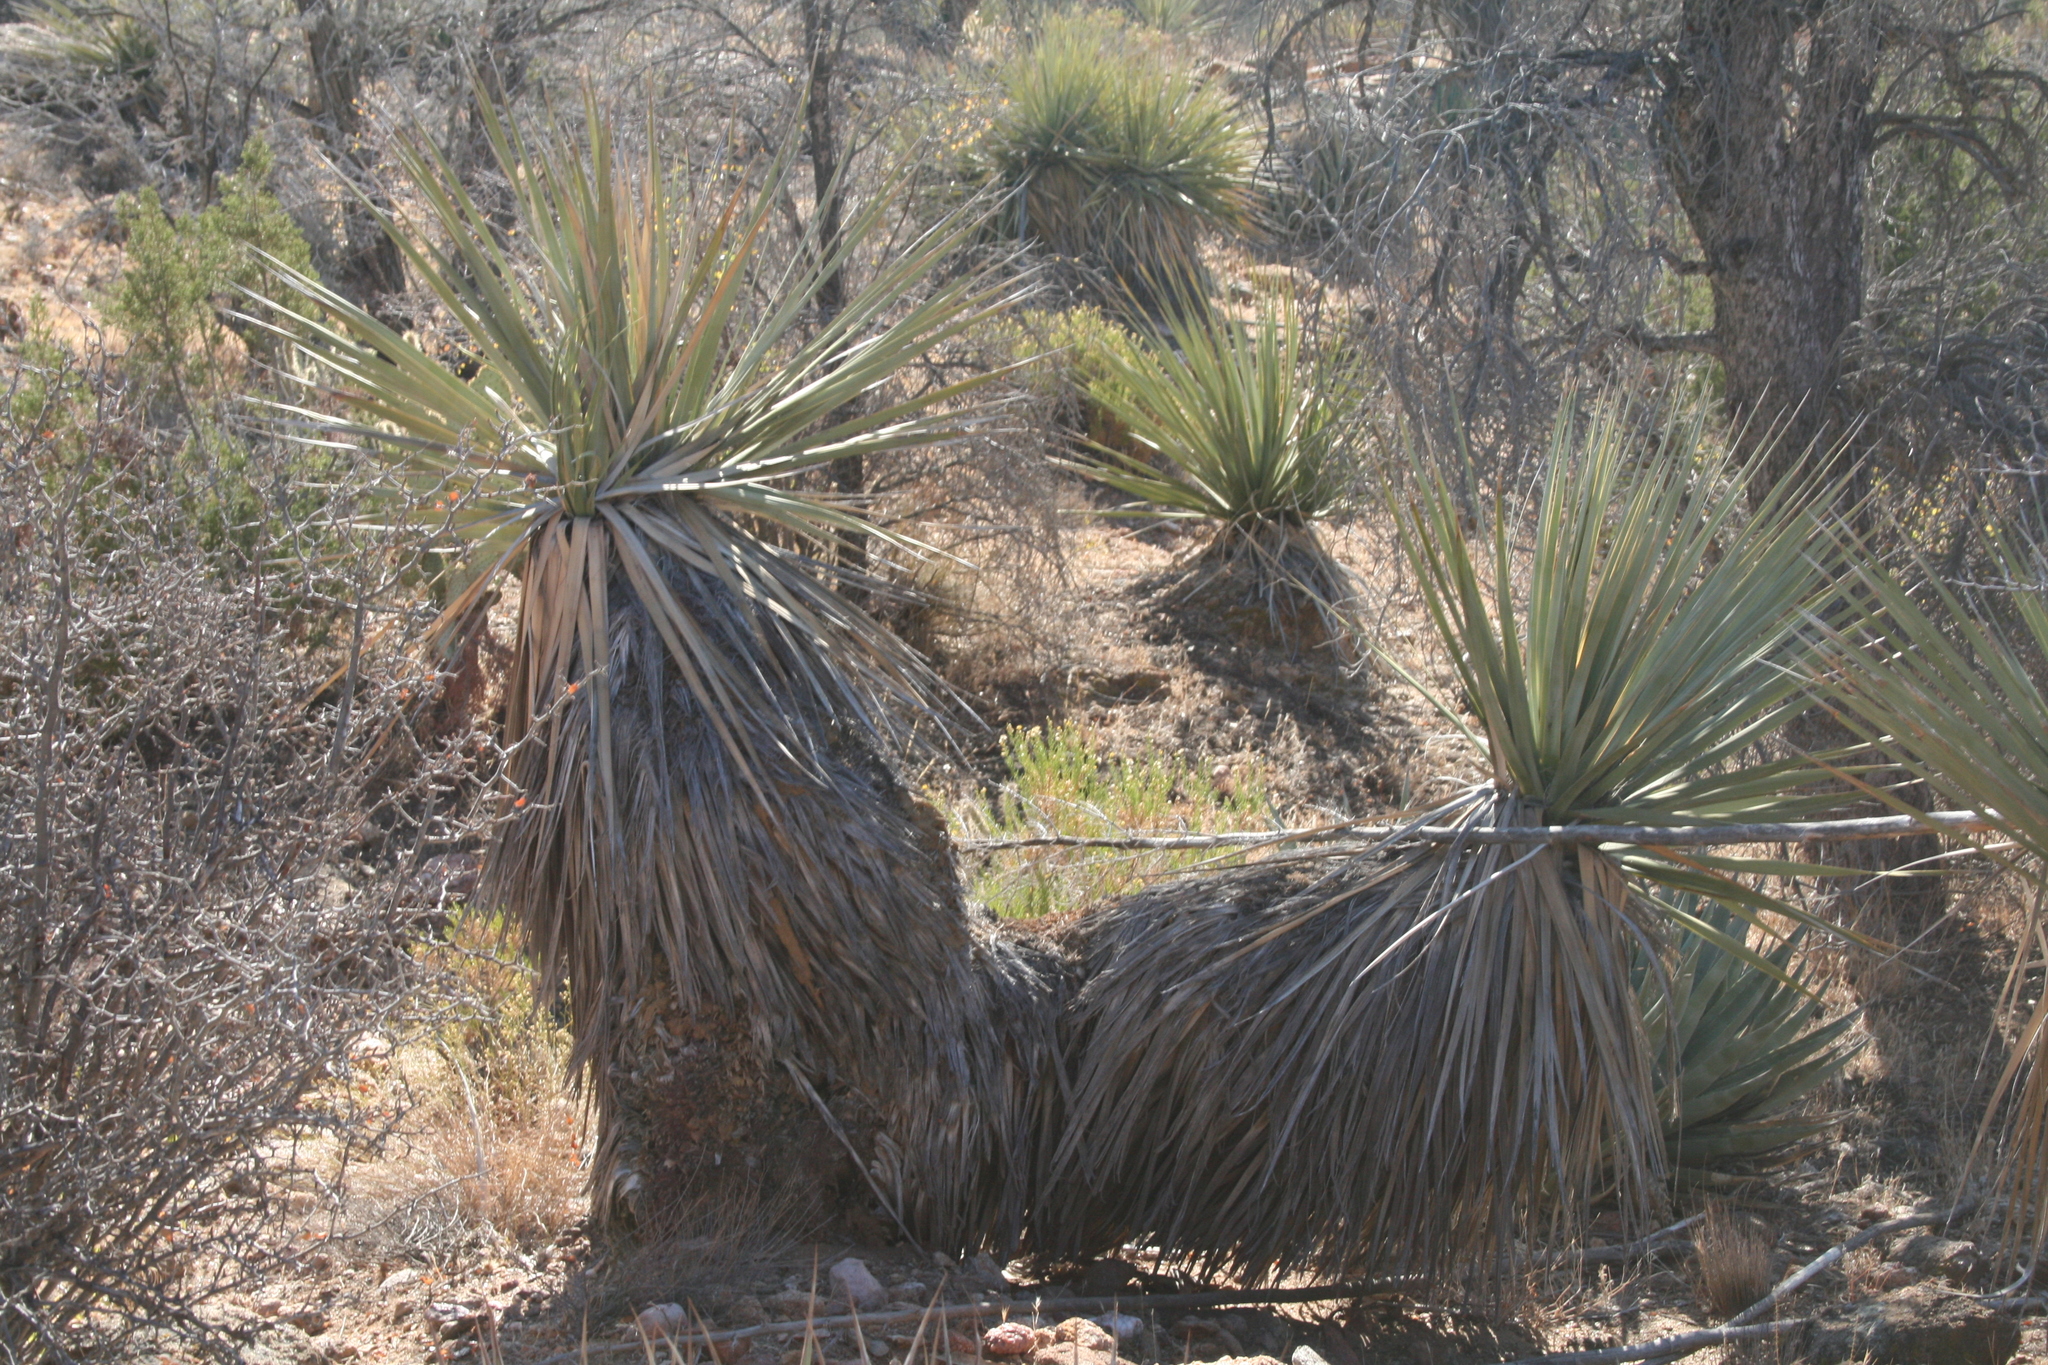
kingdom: Plantae
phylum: Tracheophyta
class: Liliopsida
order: Asparagales
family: Asparagaceae
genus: Nolina
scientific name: Nolina bigelovii
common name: Bigelow bear-grass
